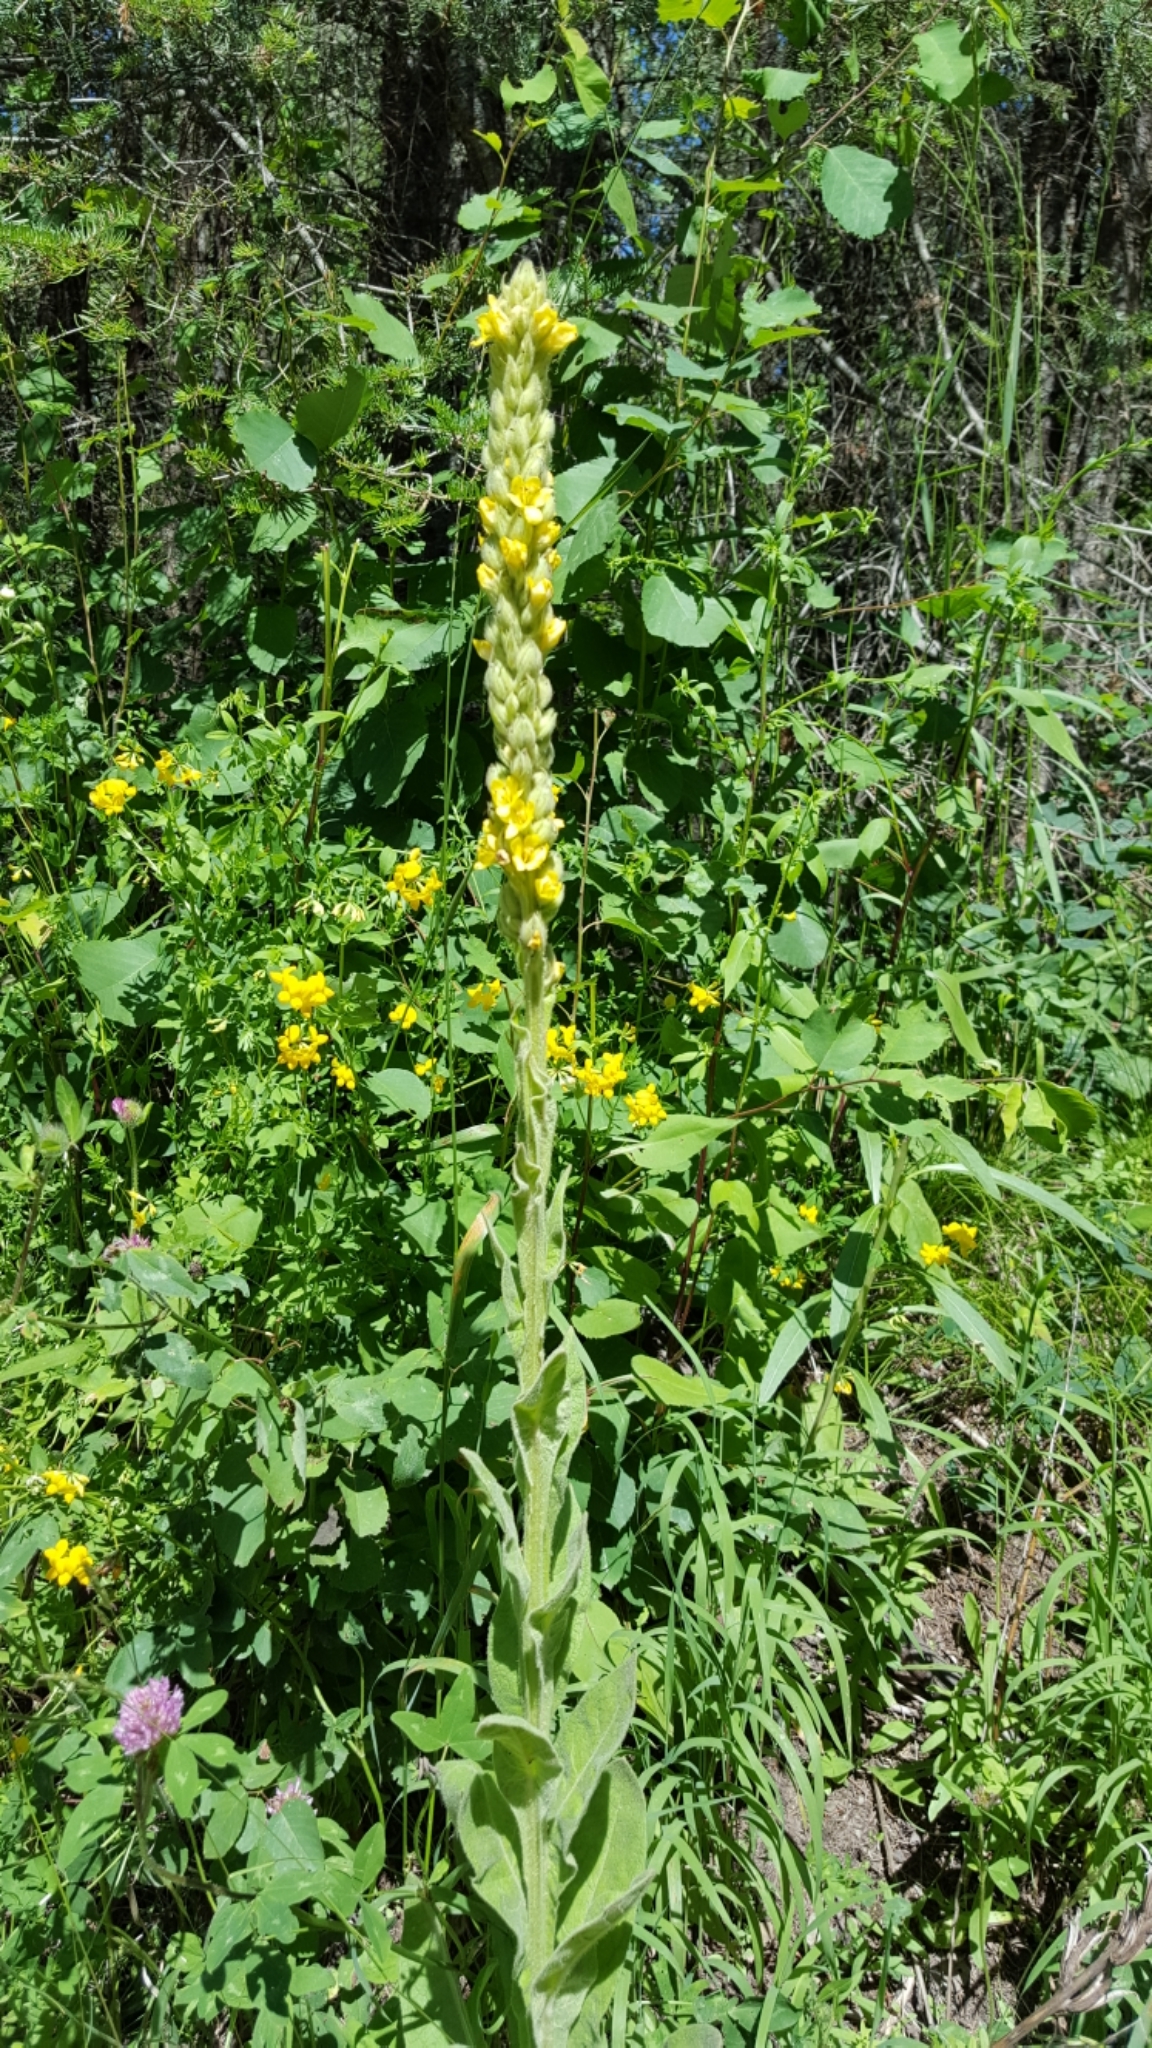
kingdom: Plantae
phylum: Tracheophyta
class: Magnoliopsida
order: Lamiales
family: Scrophulariaceae
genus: Verbascum
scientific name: Verbascum thapsus
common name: Common mullein
